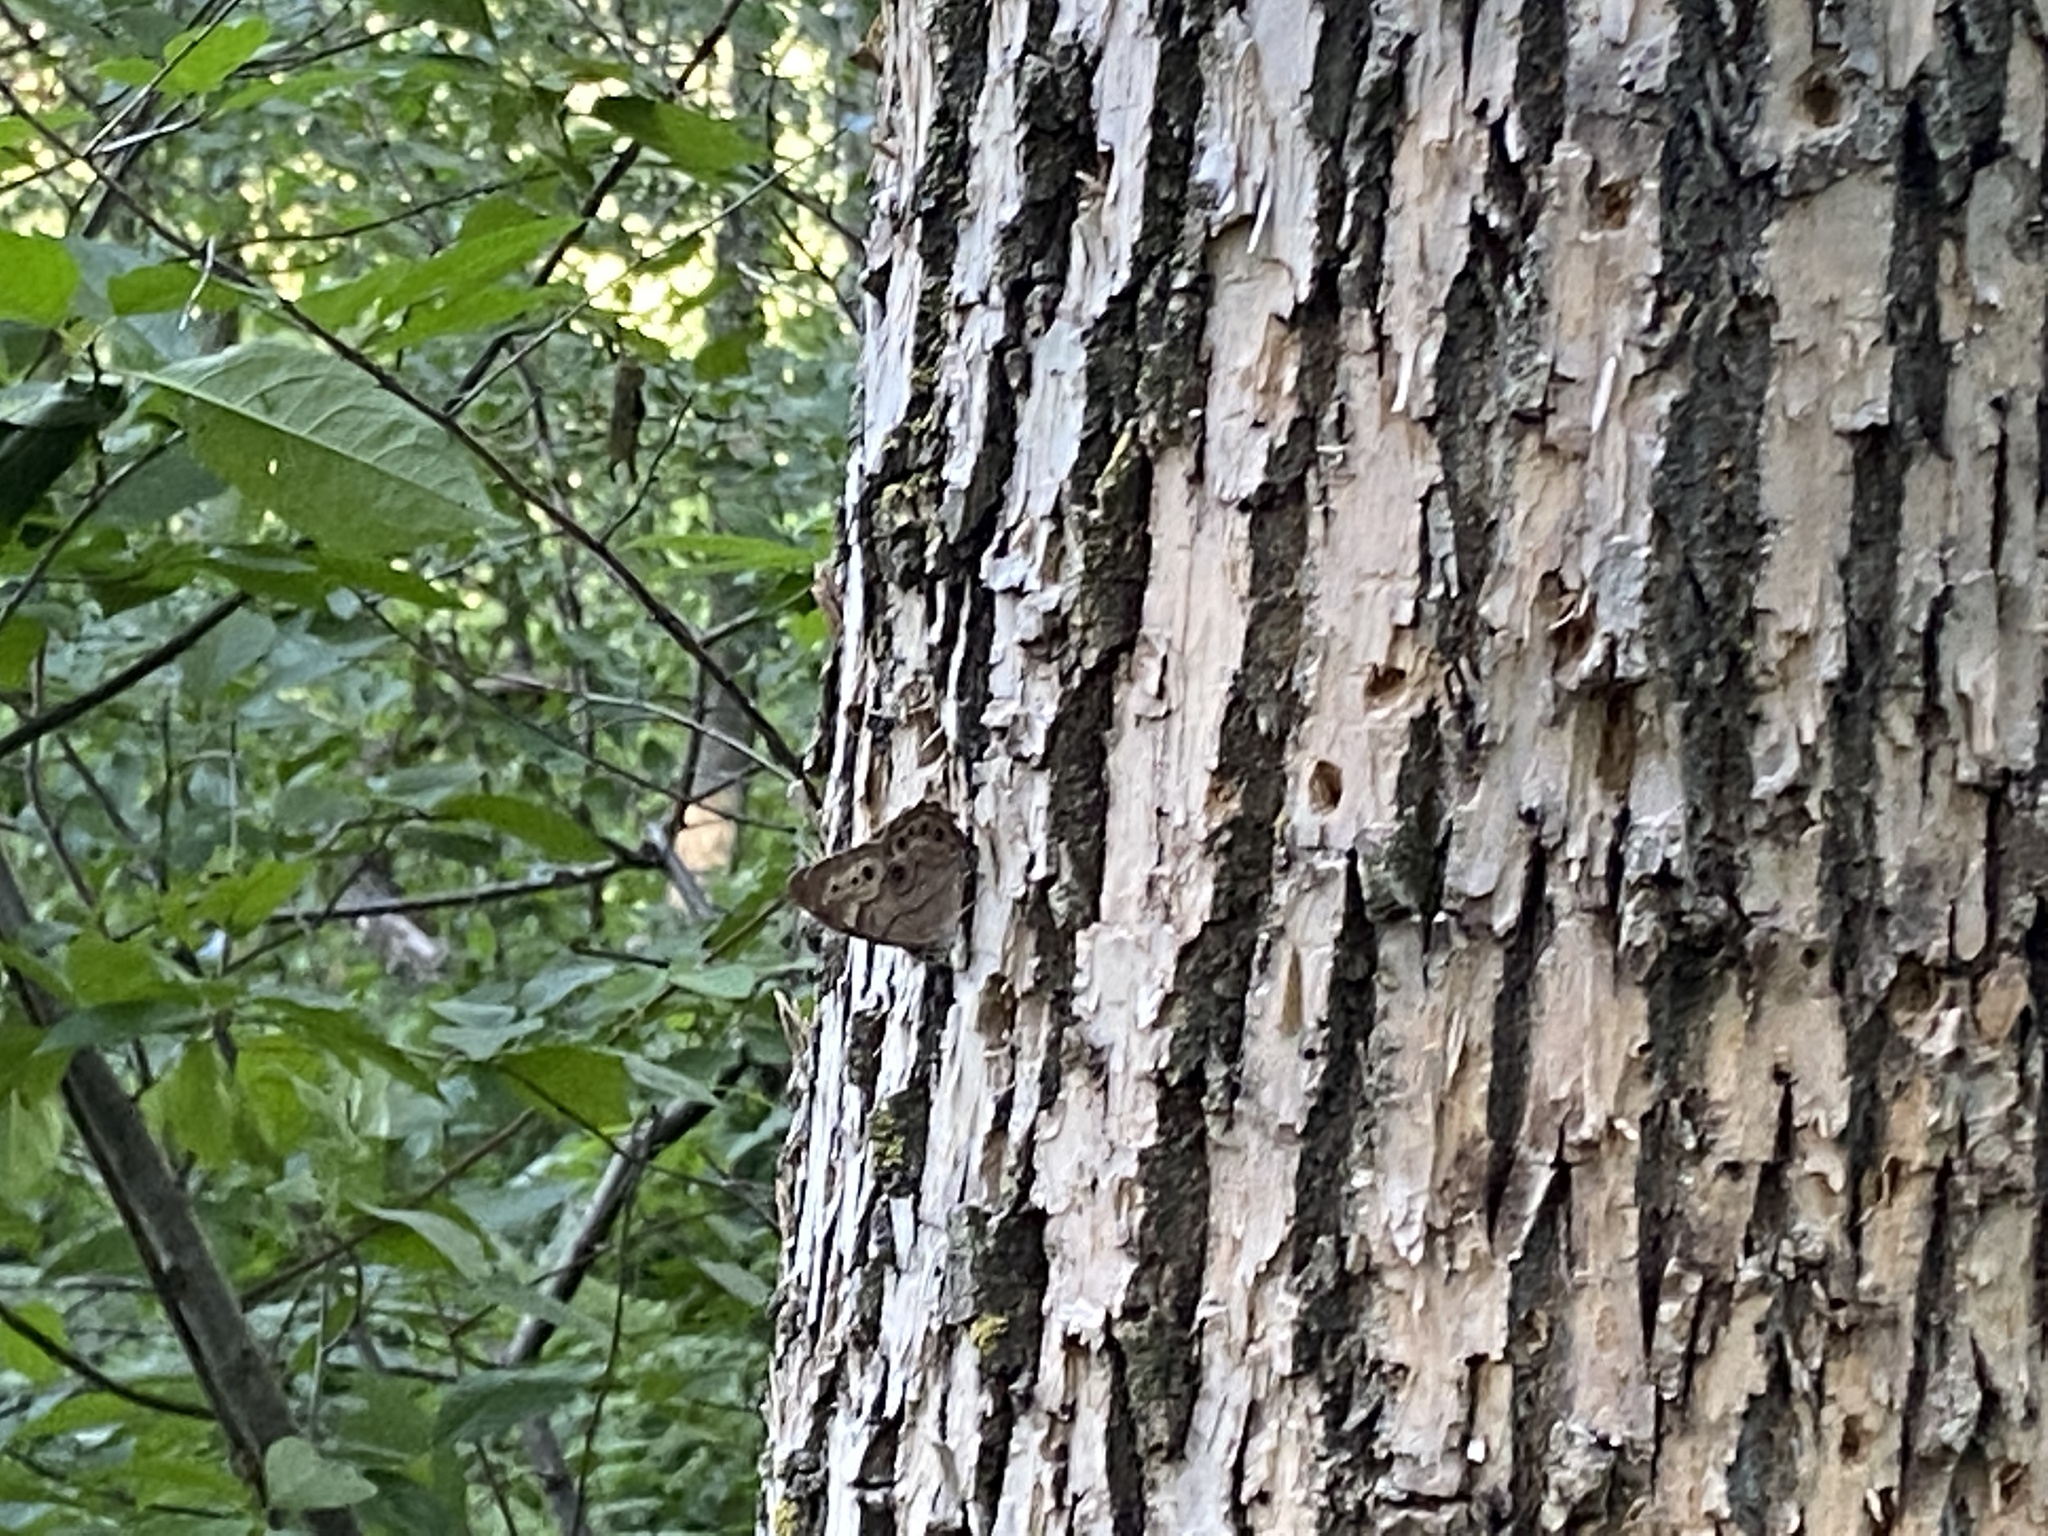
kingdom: Animalia
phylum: Arthropoda
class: Insecta
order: Lepidoptera
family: Nymphalidae
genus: Lethe
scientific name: Lethe anthedon
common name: Northern pearly-eye
